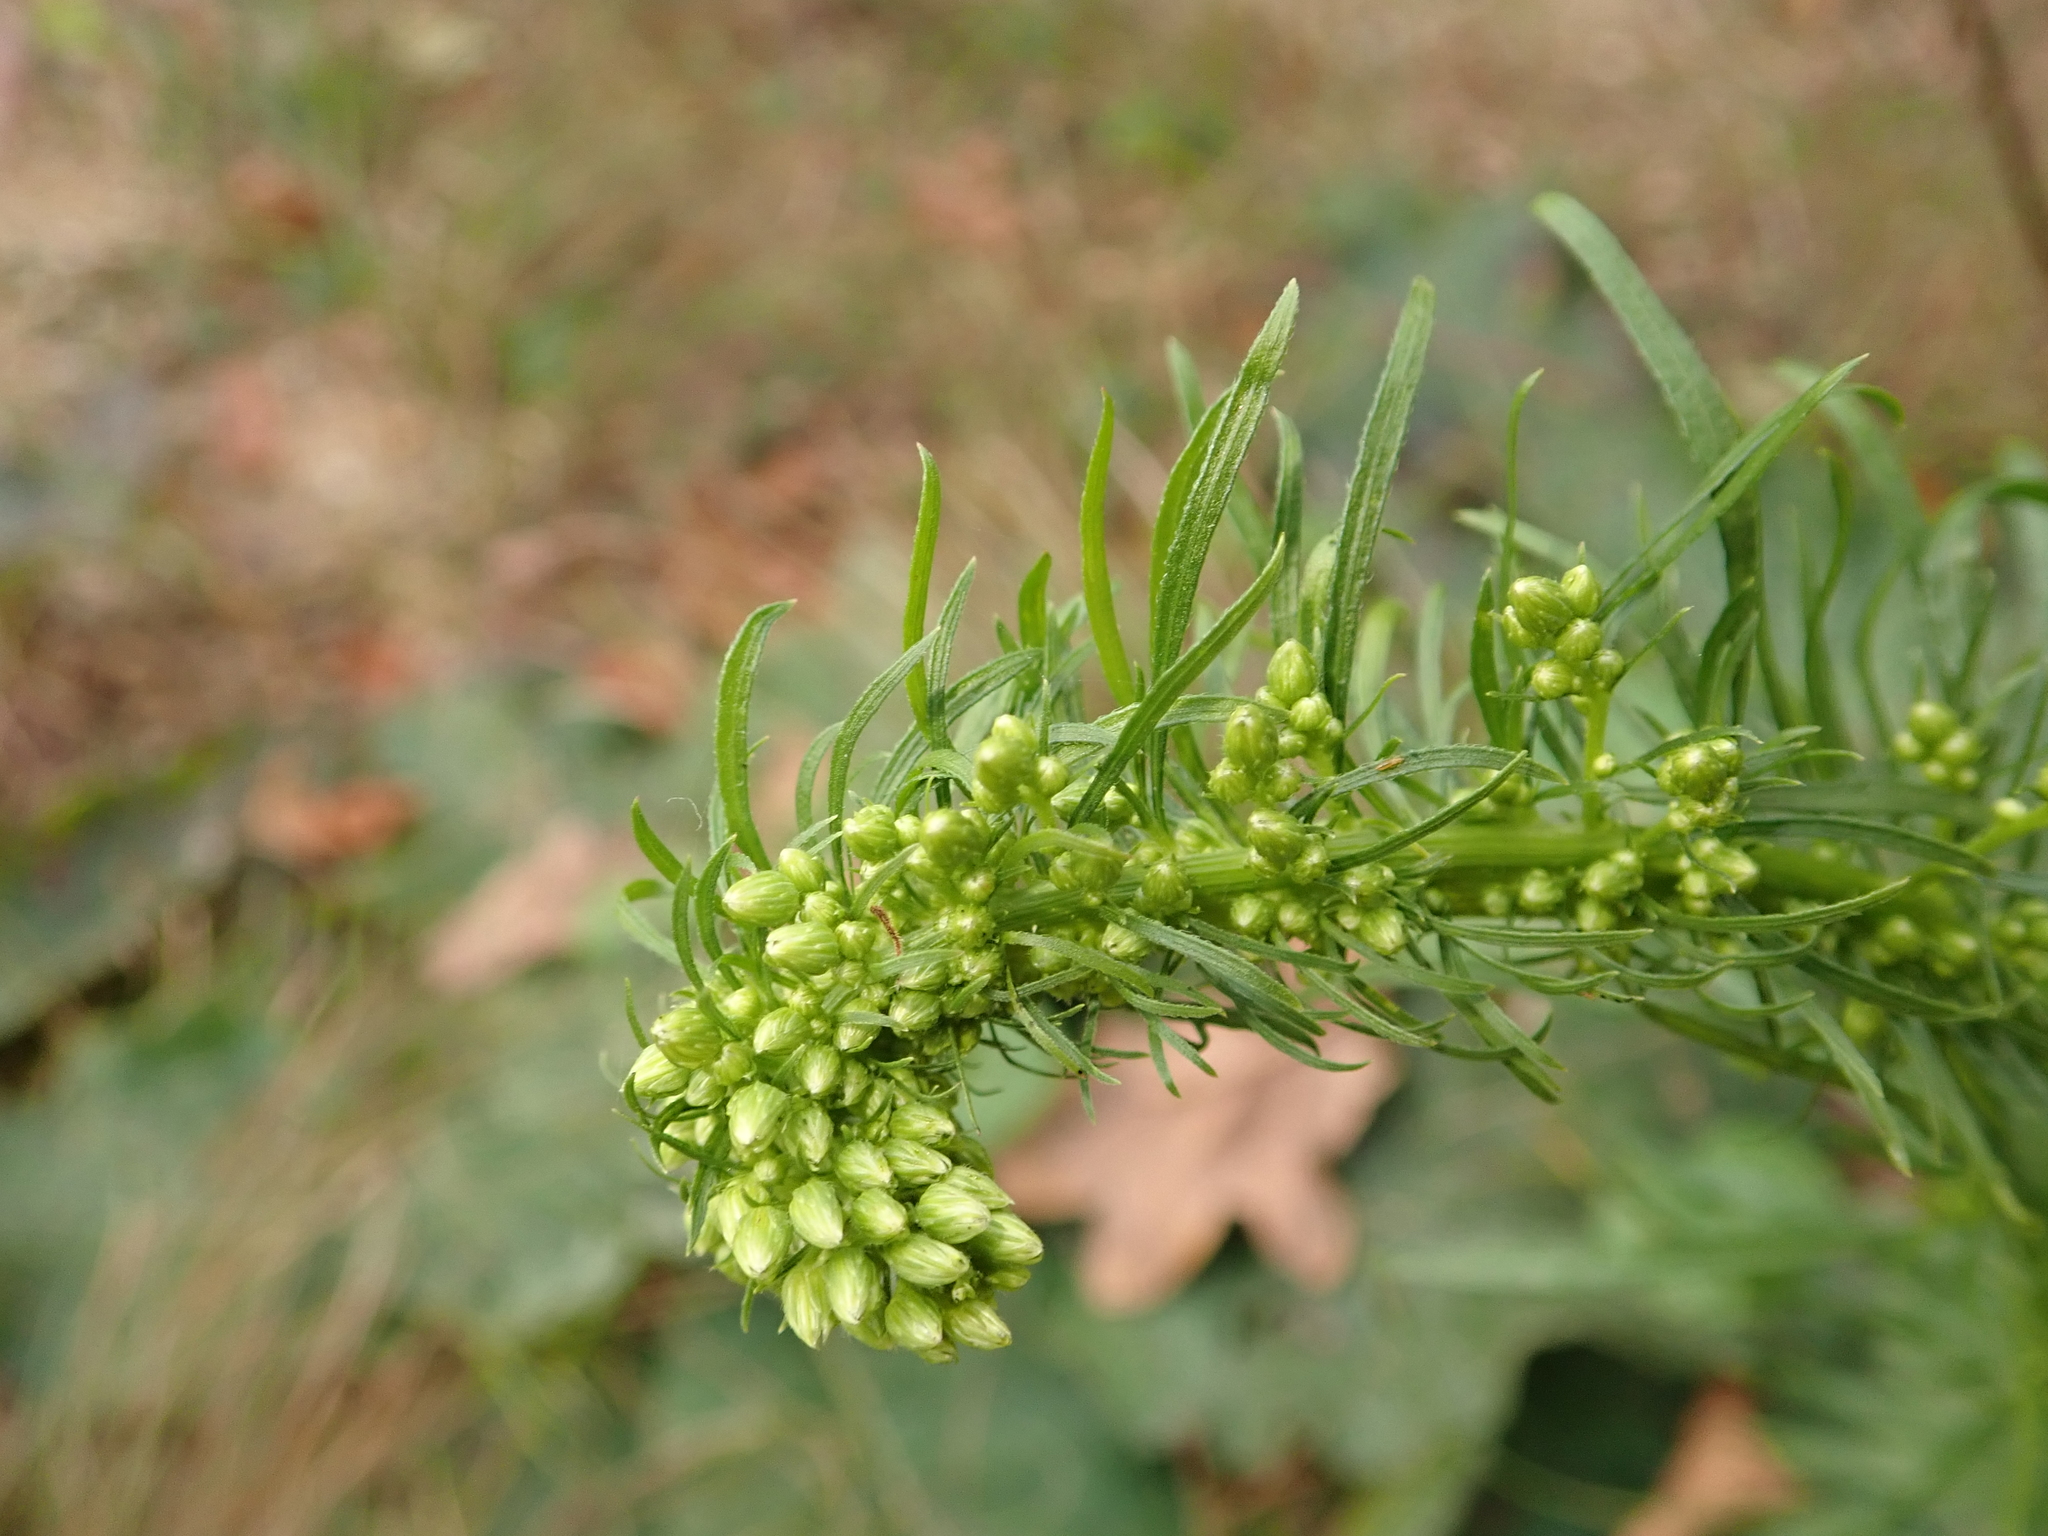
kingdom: Plantae
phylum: Tracheophyta
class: Magnoliopsida
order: Asterales
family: Asteraceae
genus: Erigeron
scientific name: Erigeron canadensis
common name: Canadian fleabane
